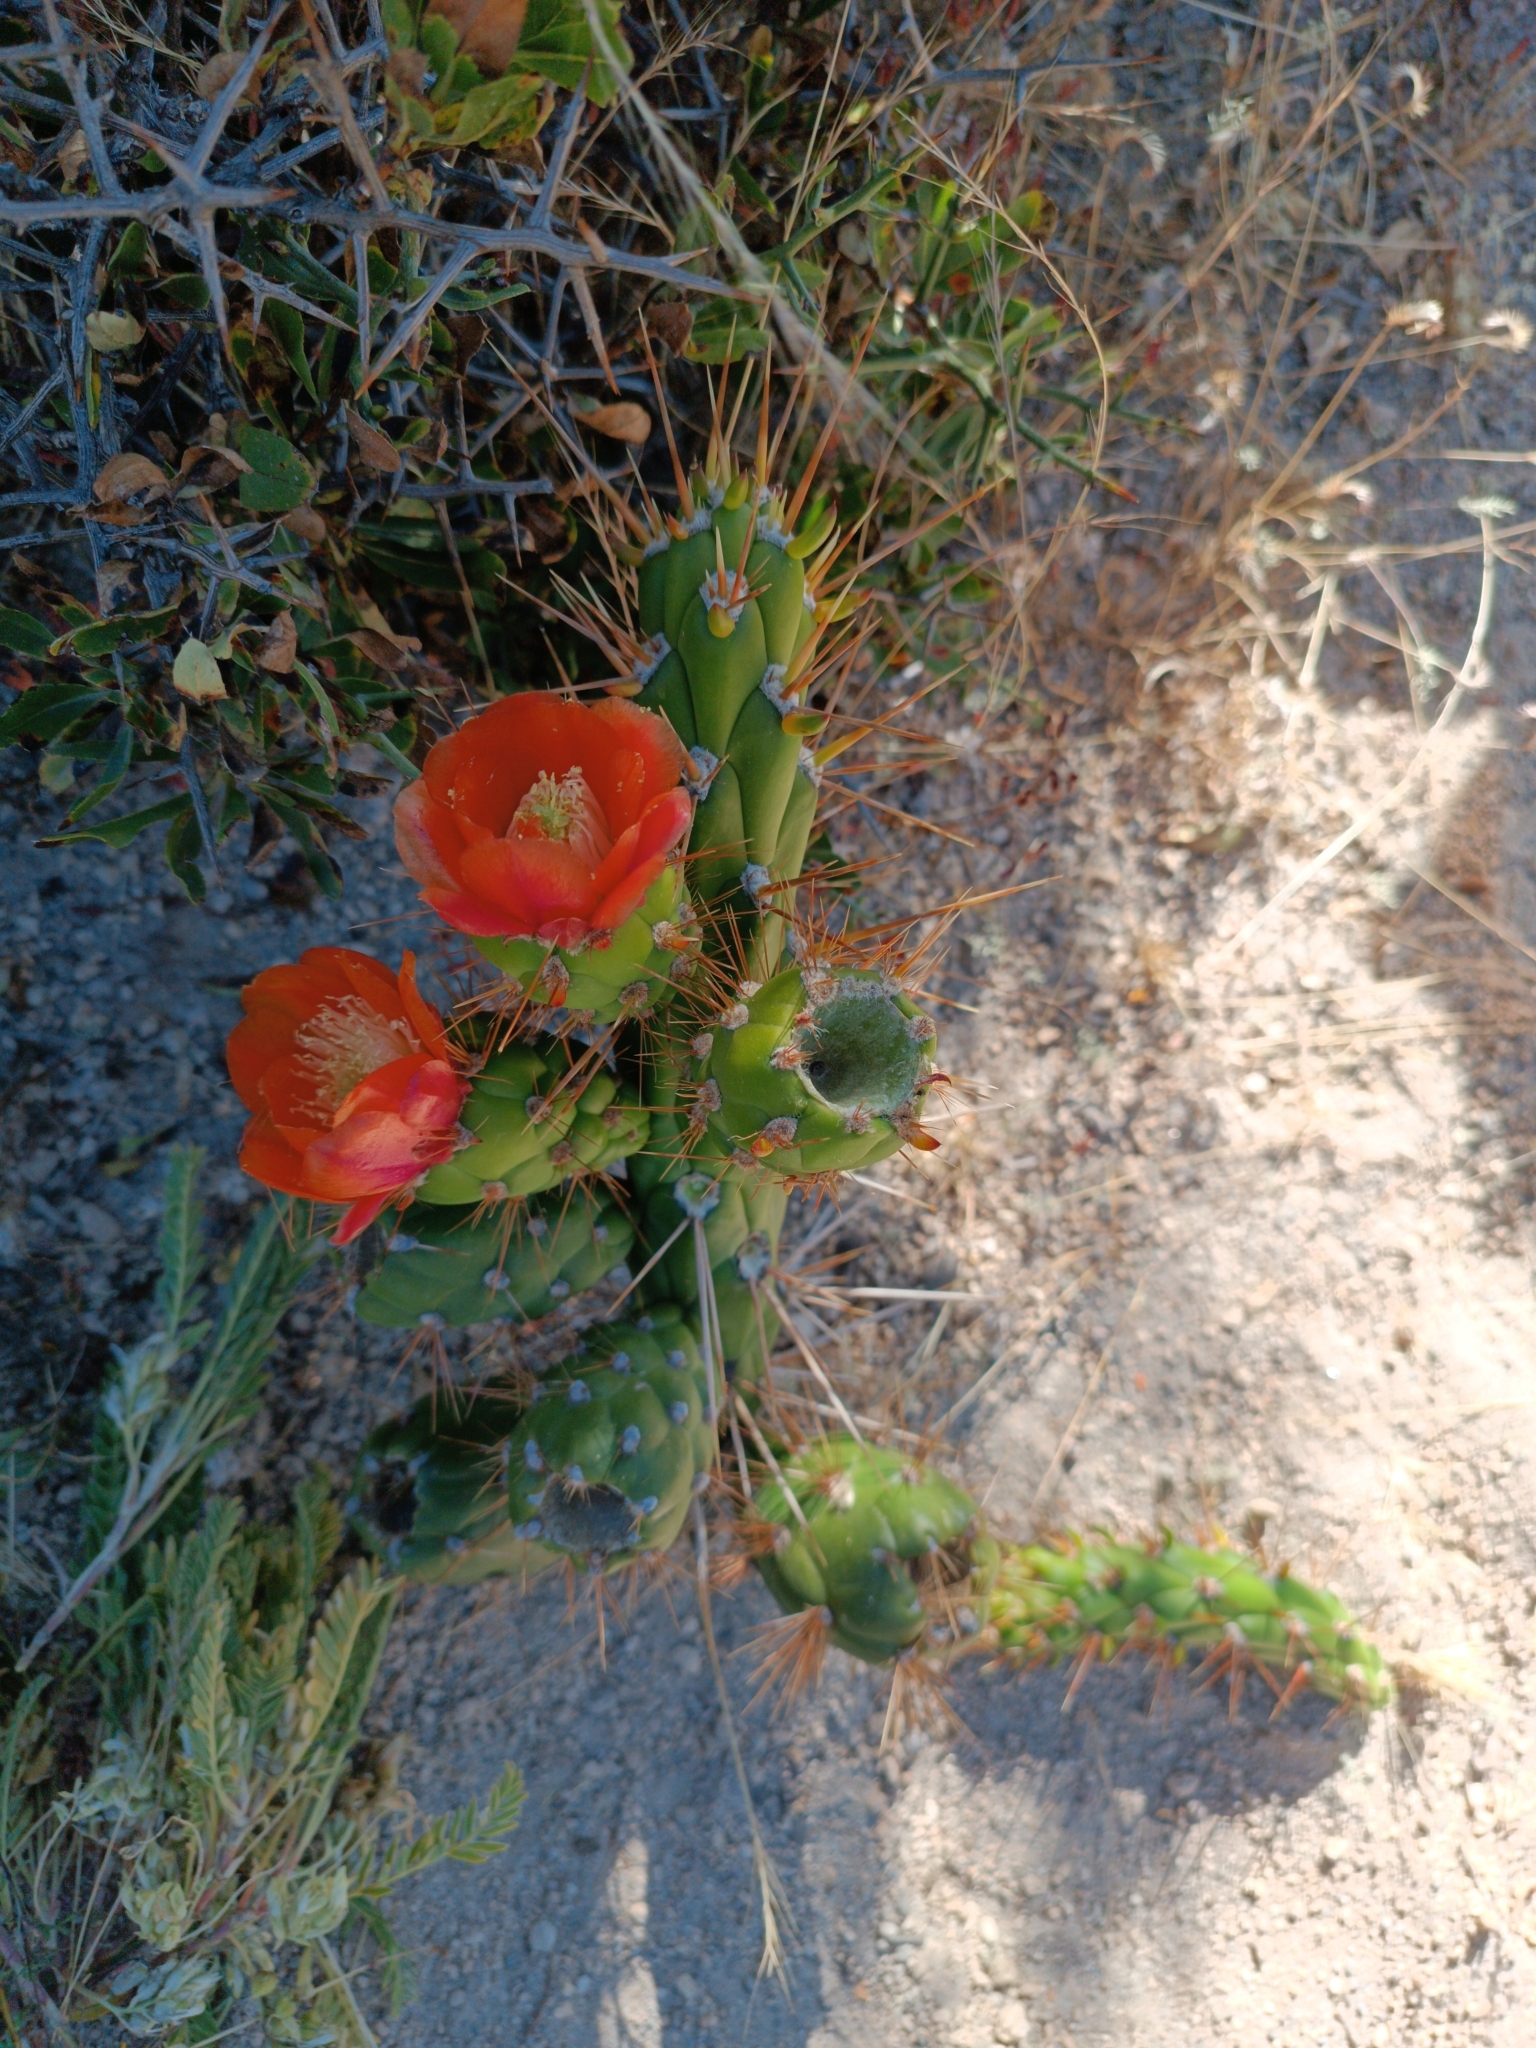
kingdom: Plantae
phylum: Tracheophyta
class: Magnoliopsida
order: Caryophyllales
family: Cactaceae
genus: Austrocylindropuntia
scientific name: Austrocylindropuntia subulata
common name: Eve's needle cactus
